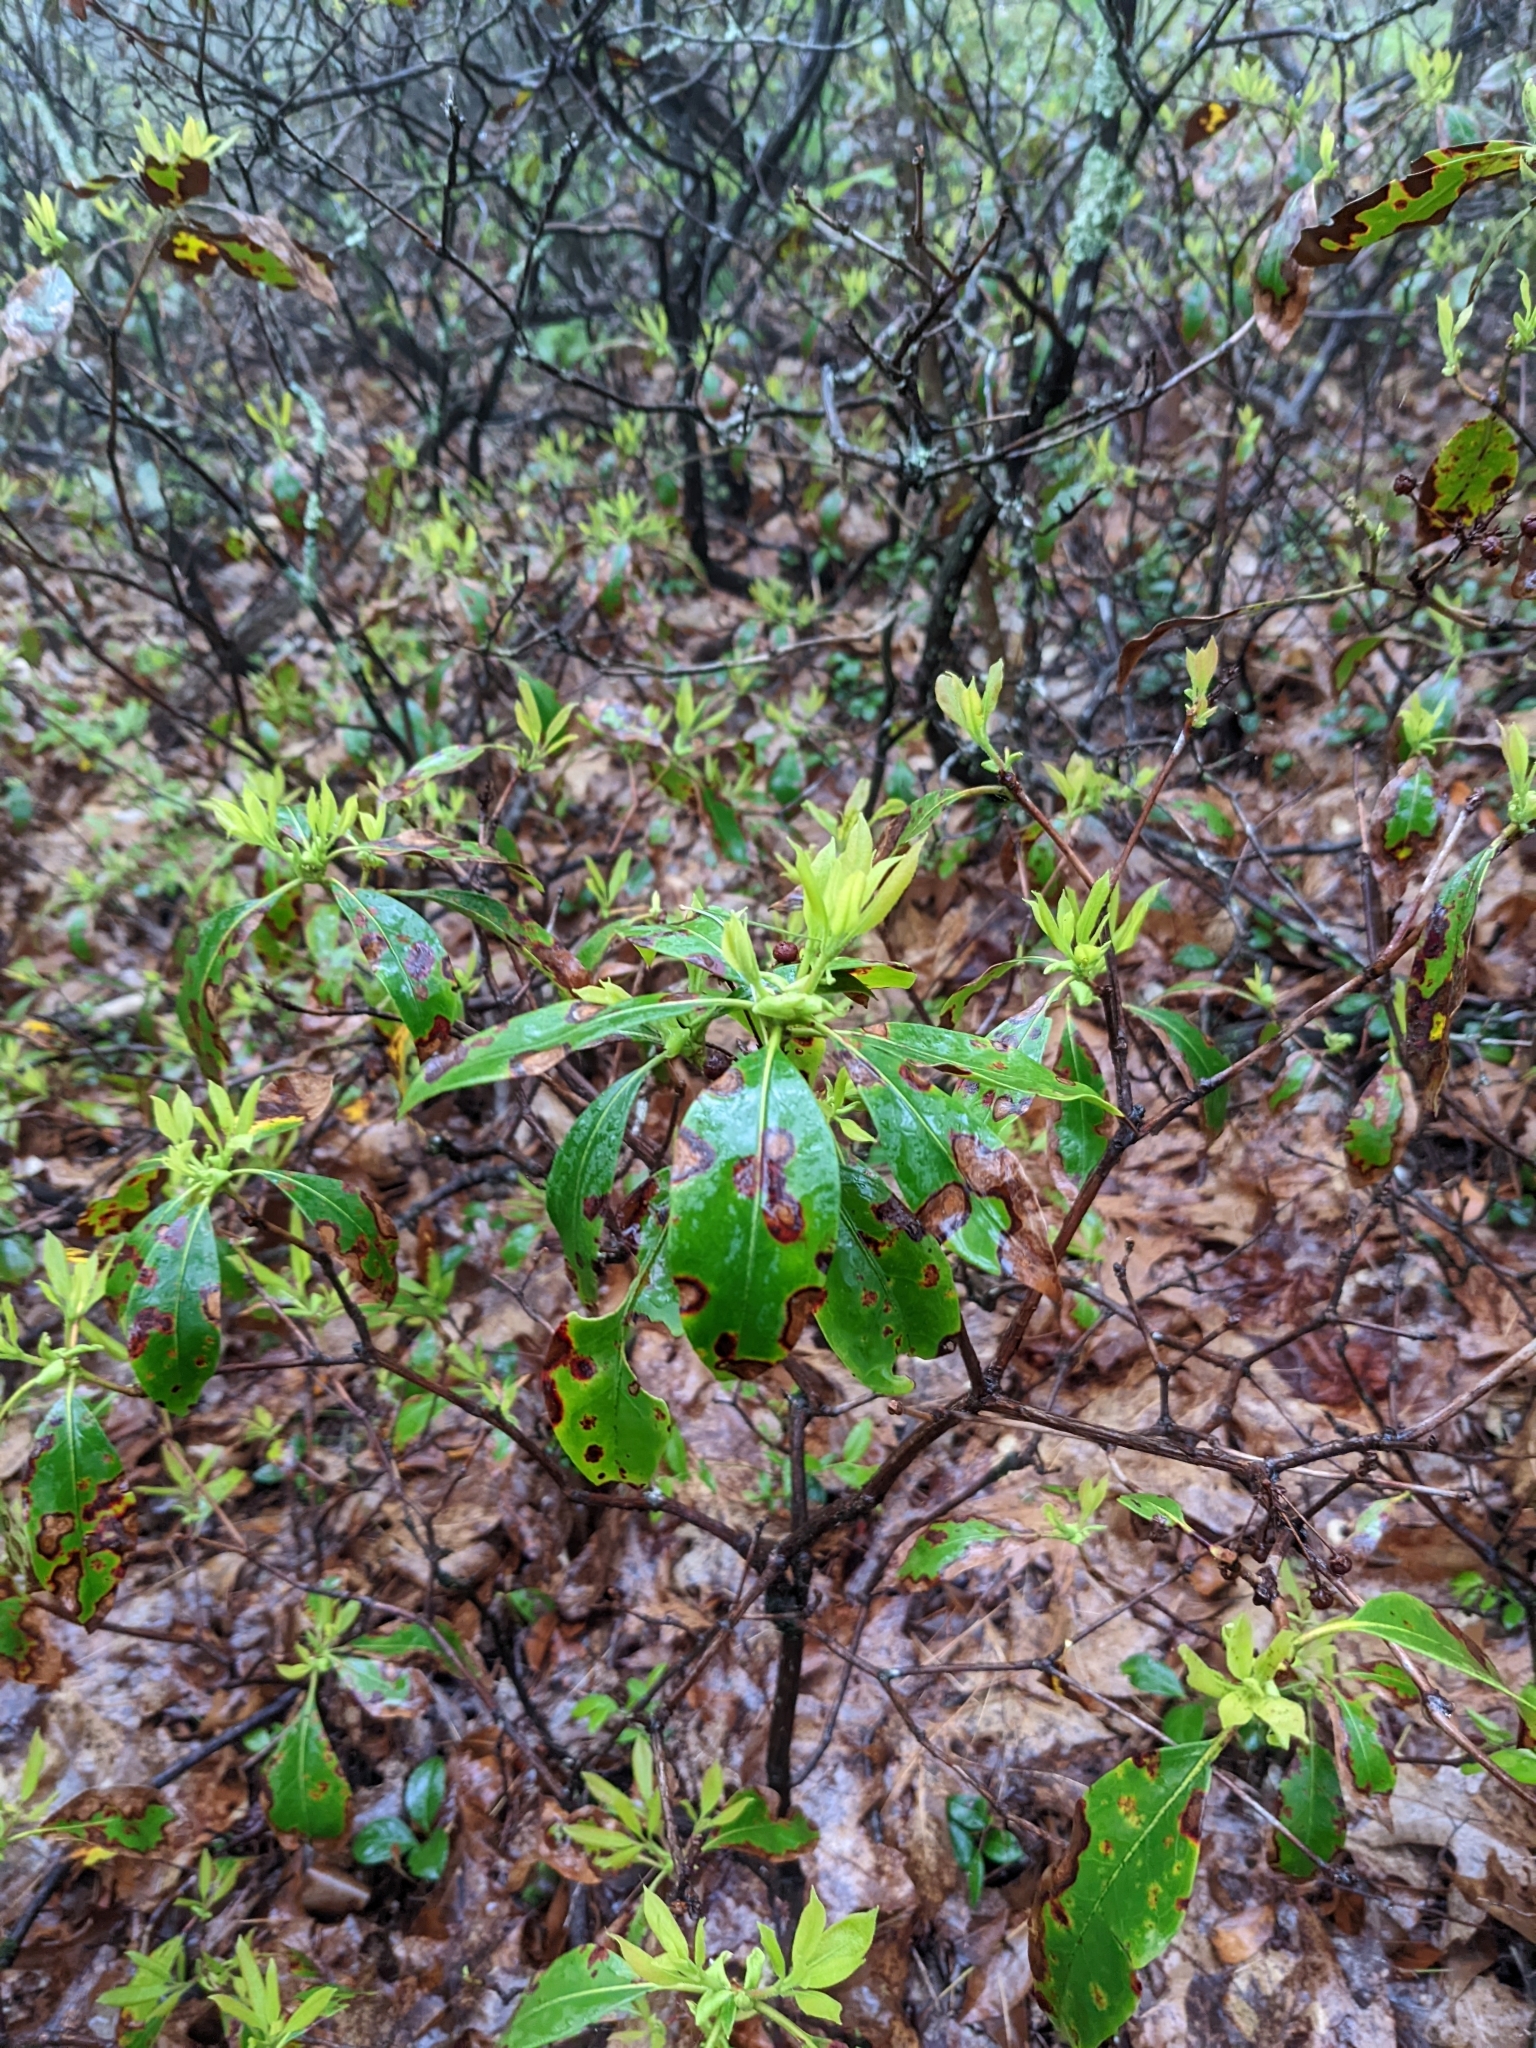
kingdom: Plantae
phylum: Tracheophyta
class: Magnoliopsida
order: Ericales
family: Ericaceae
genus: Kalmia
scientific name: Kalmia latifolia
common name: Mountain-laurel
